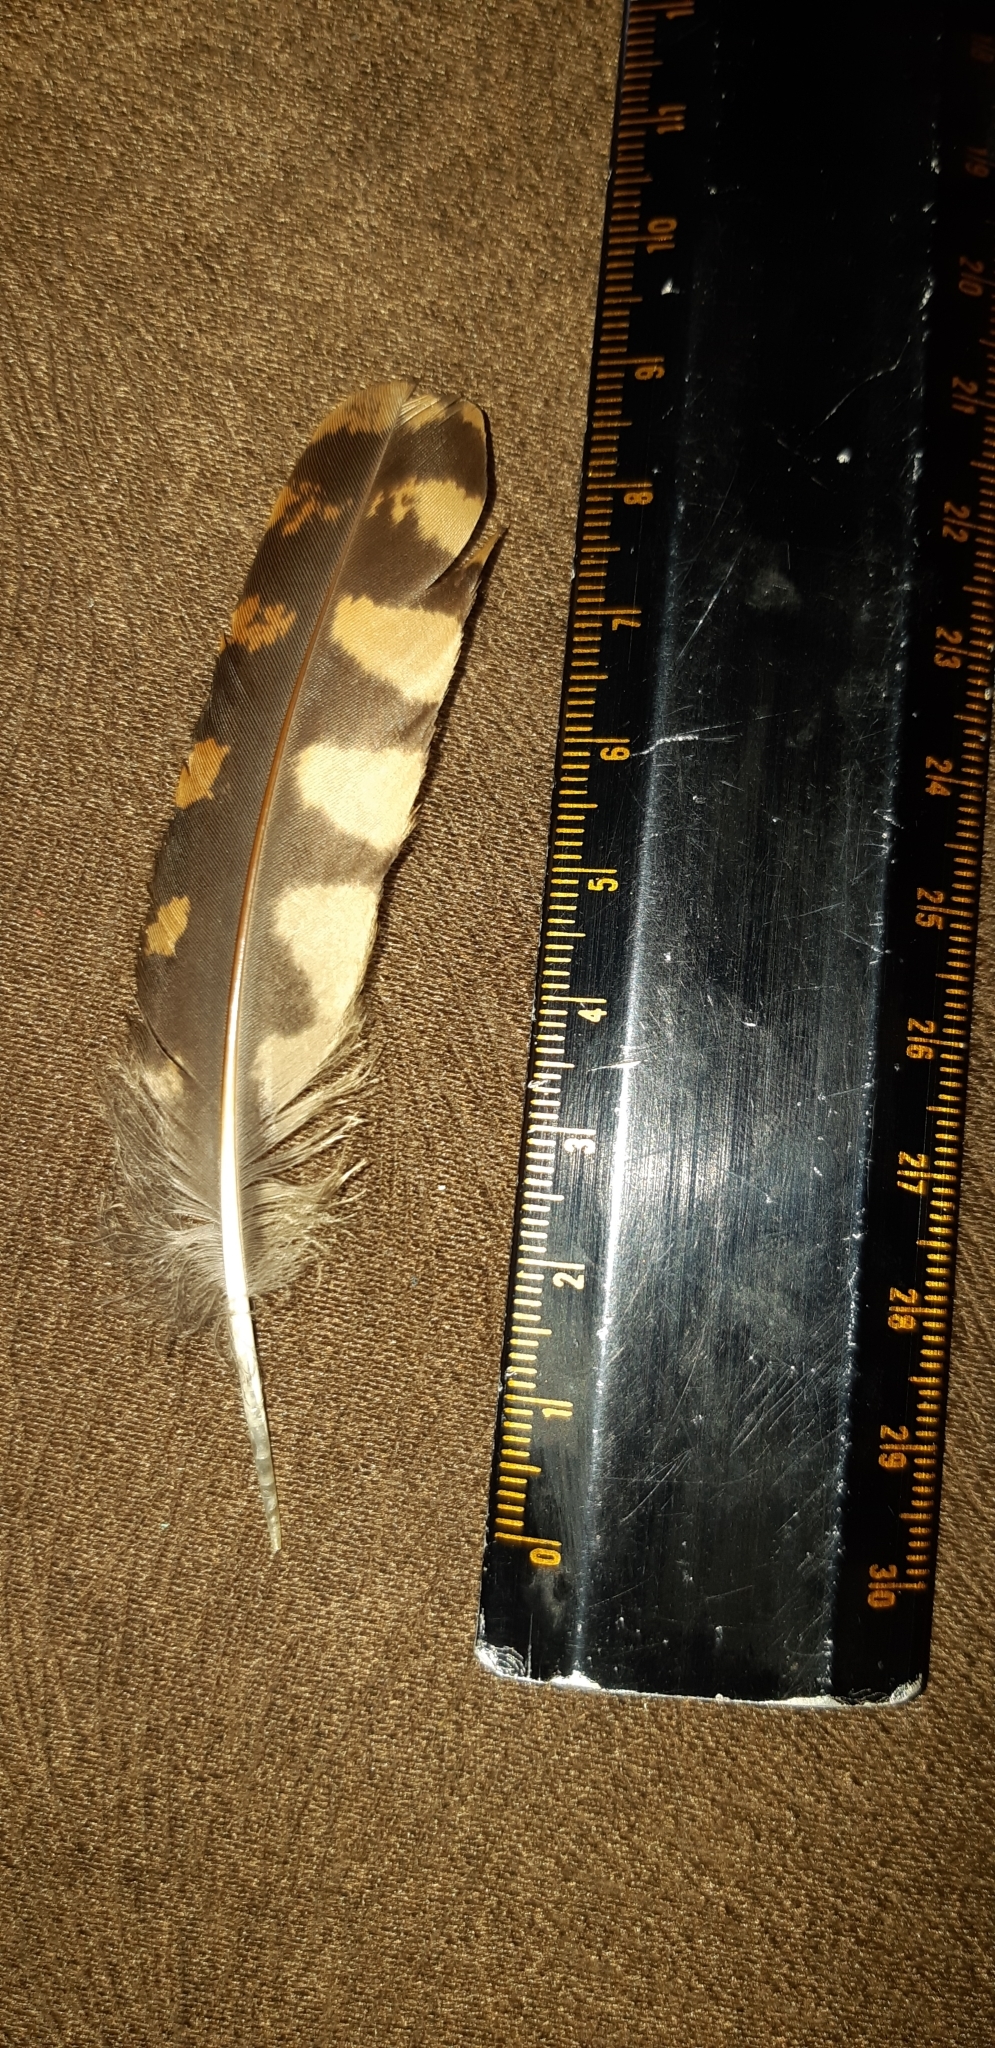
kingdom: Animalia
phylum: Chordata
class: Aves
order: Caprimulgiformes
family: Caprimulgidae
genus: Nyctidromus
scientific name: Nyctidromus albicollis
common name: Pauraque
